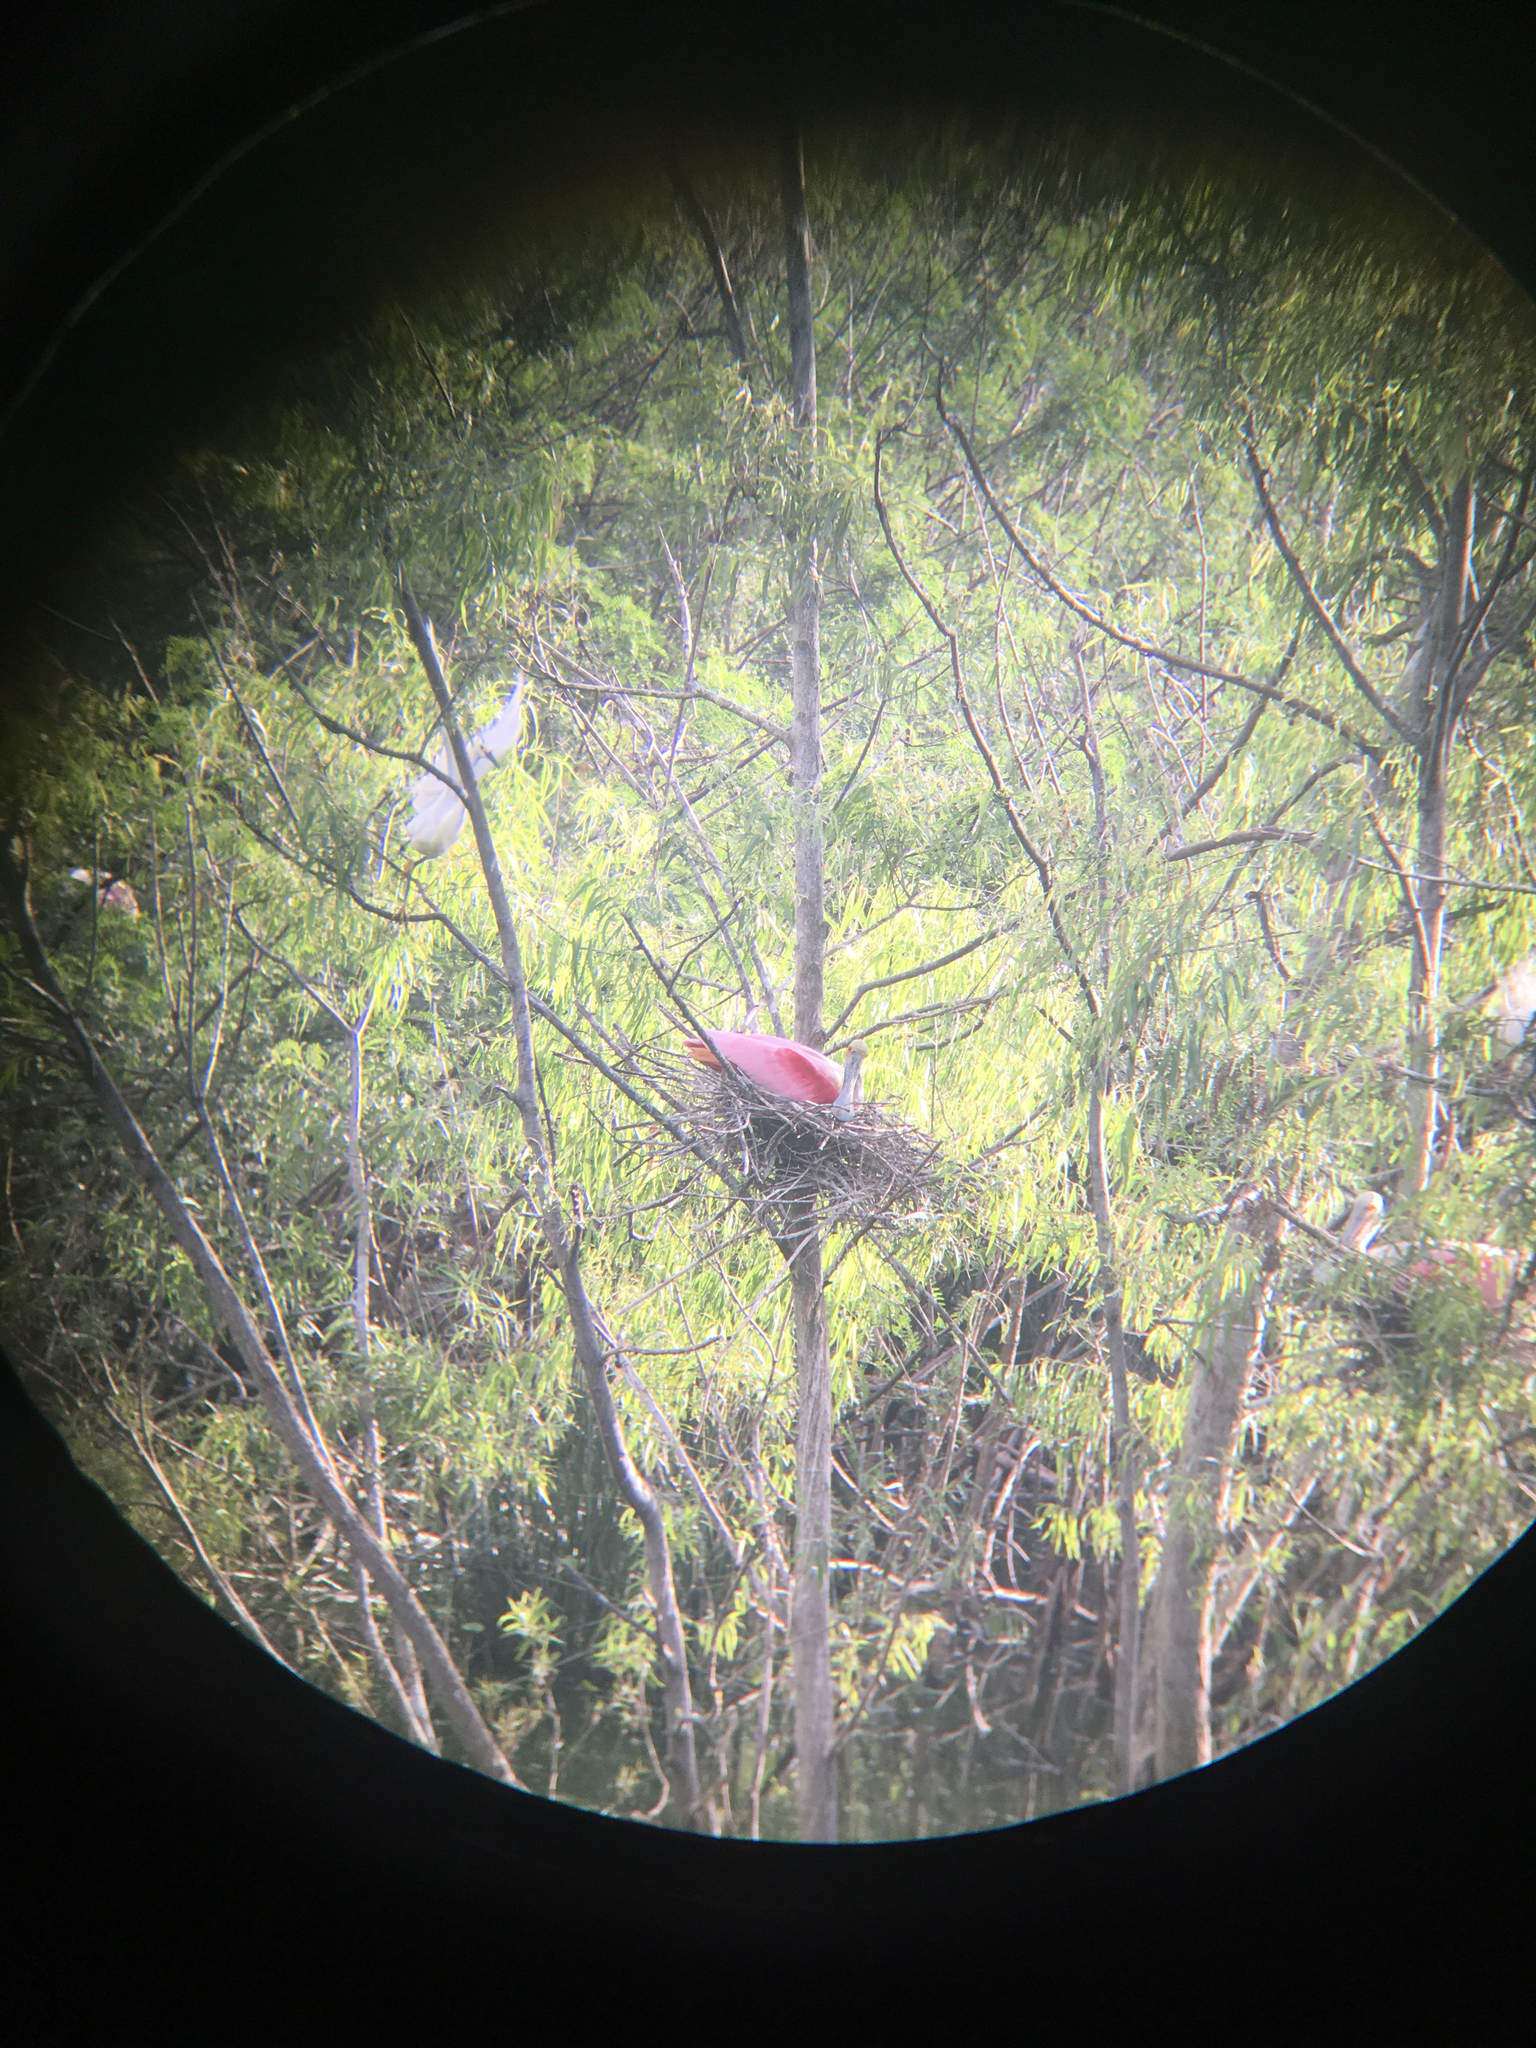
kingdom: Animalia
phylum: Chordata
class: Aves
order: Pelecaniformes
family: Threskiornithidae
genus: Platalea
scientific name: Platalea ajaja
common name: Roseate spoonbill
